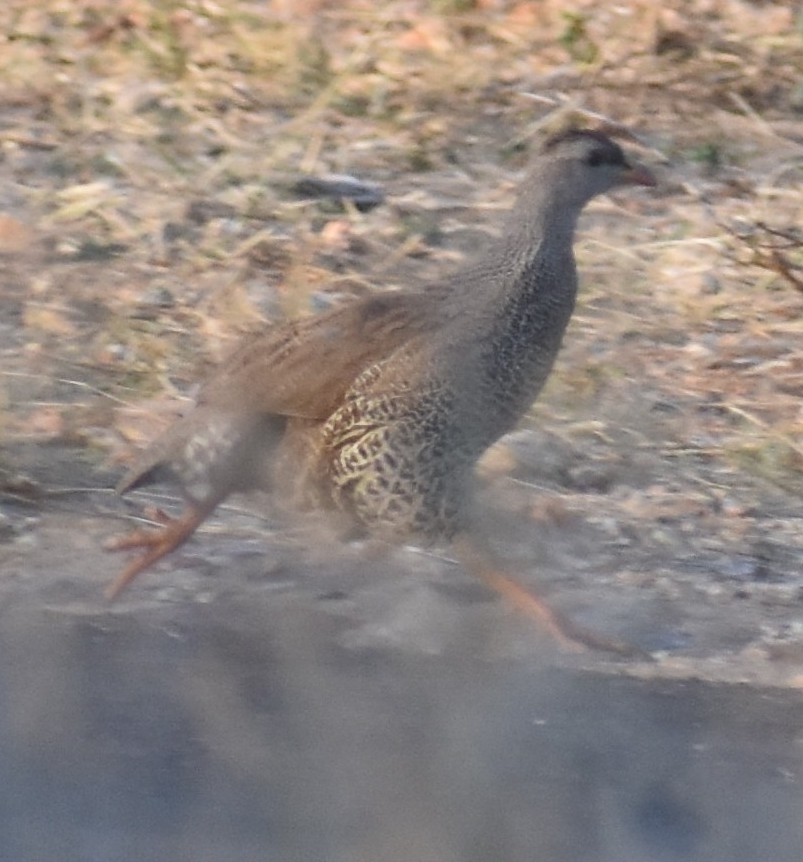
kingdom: Animalia
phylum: Chordata
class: Aves
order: Galliformes
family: Phasianidae
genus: Pternistis
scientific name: Pternistis natalensis
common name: Natal spurfowl
